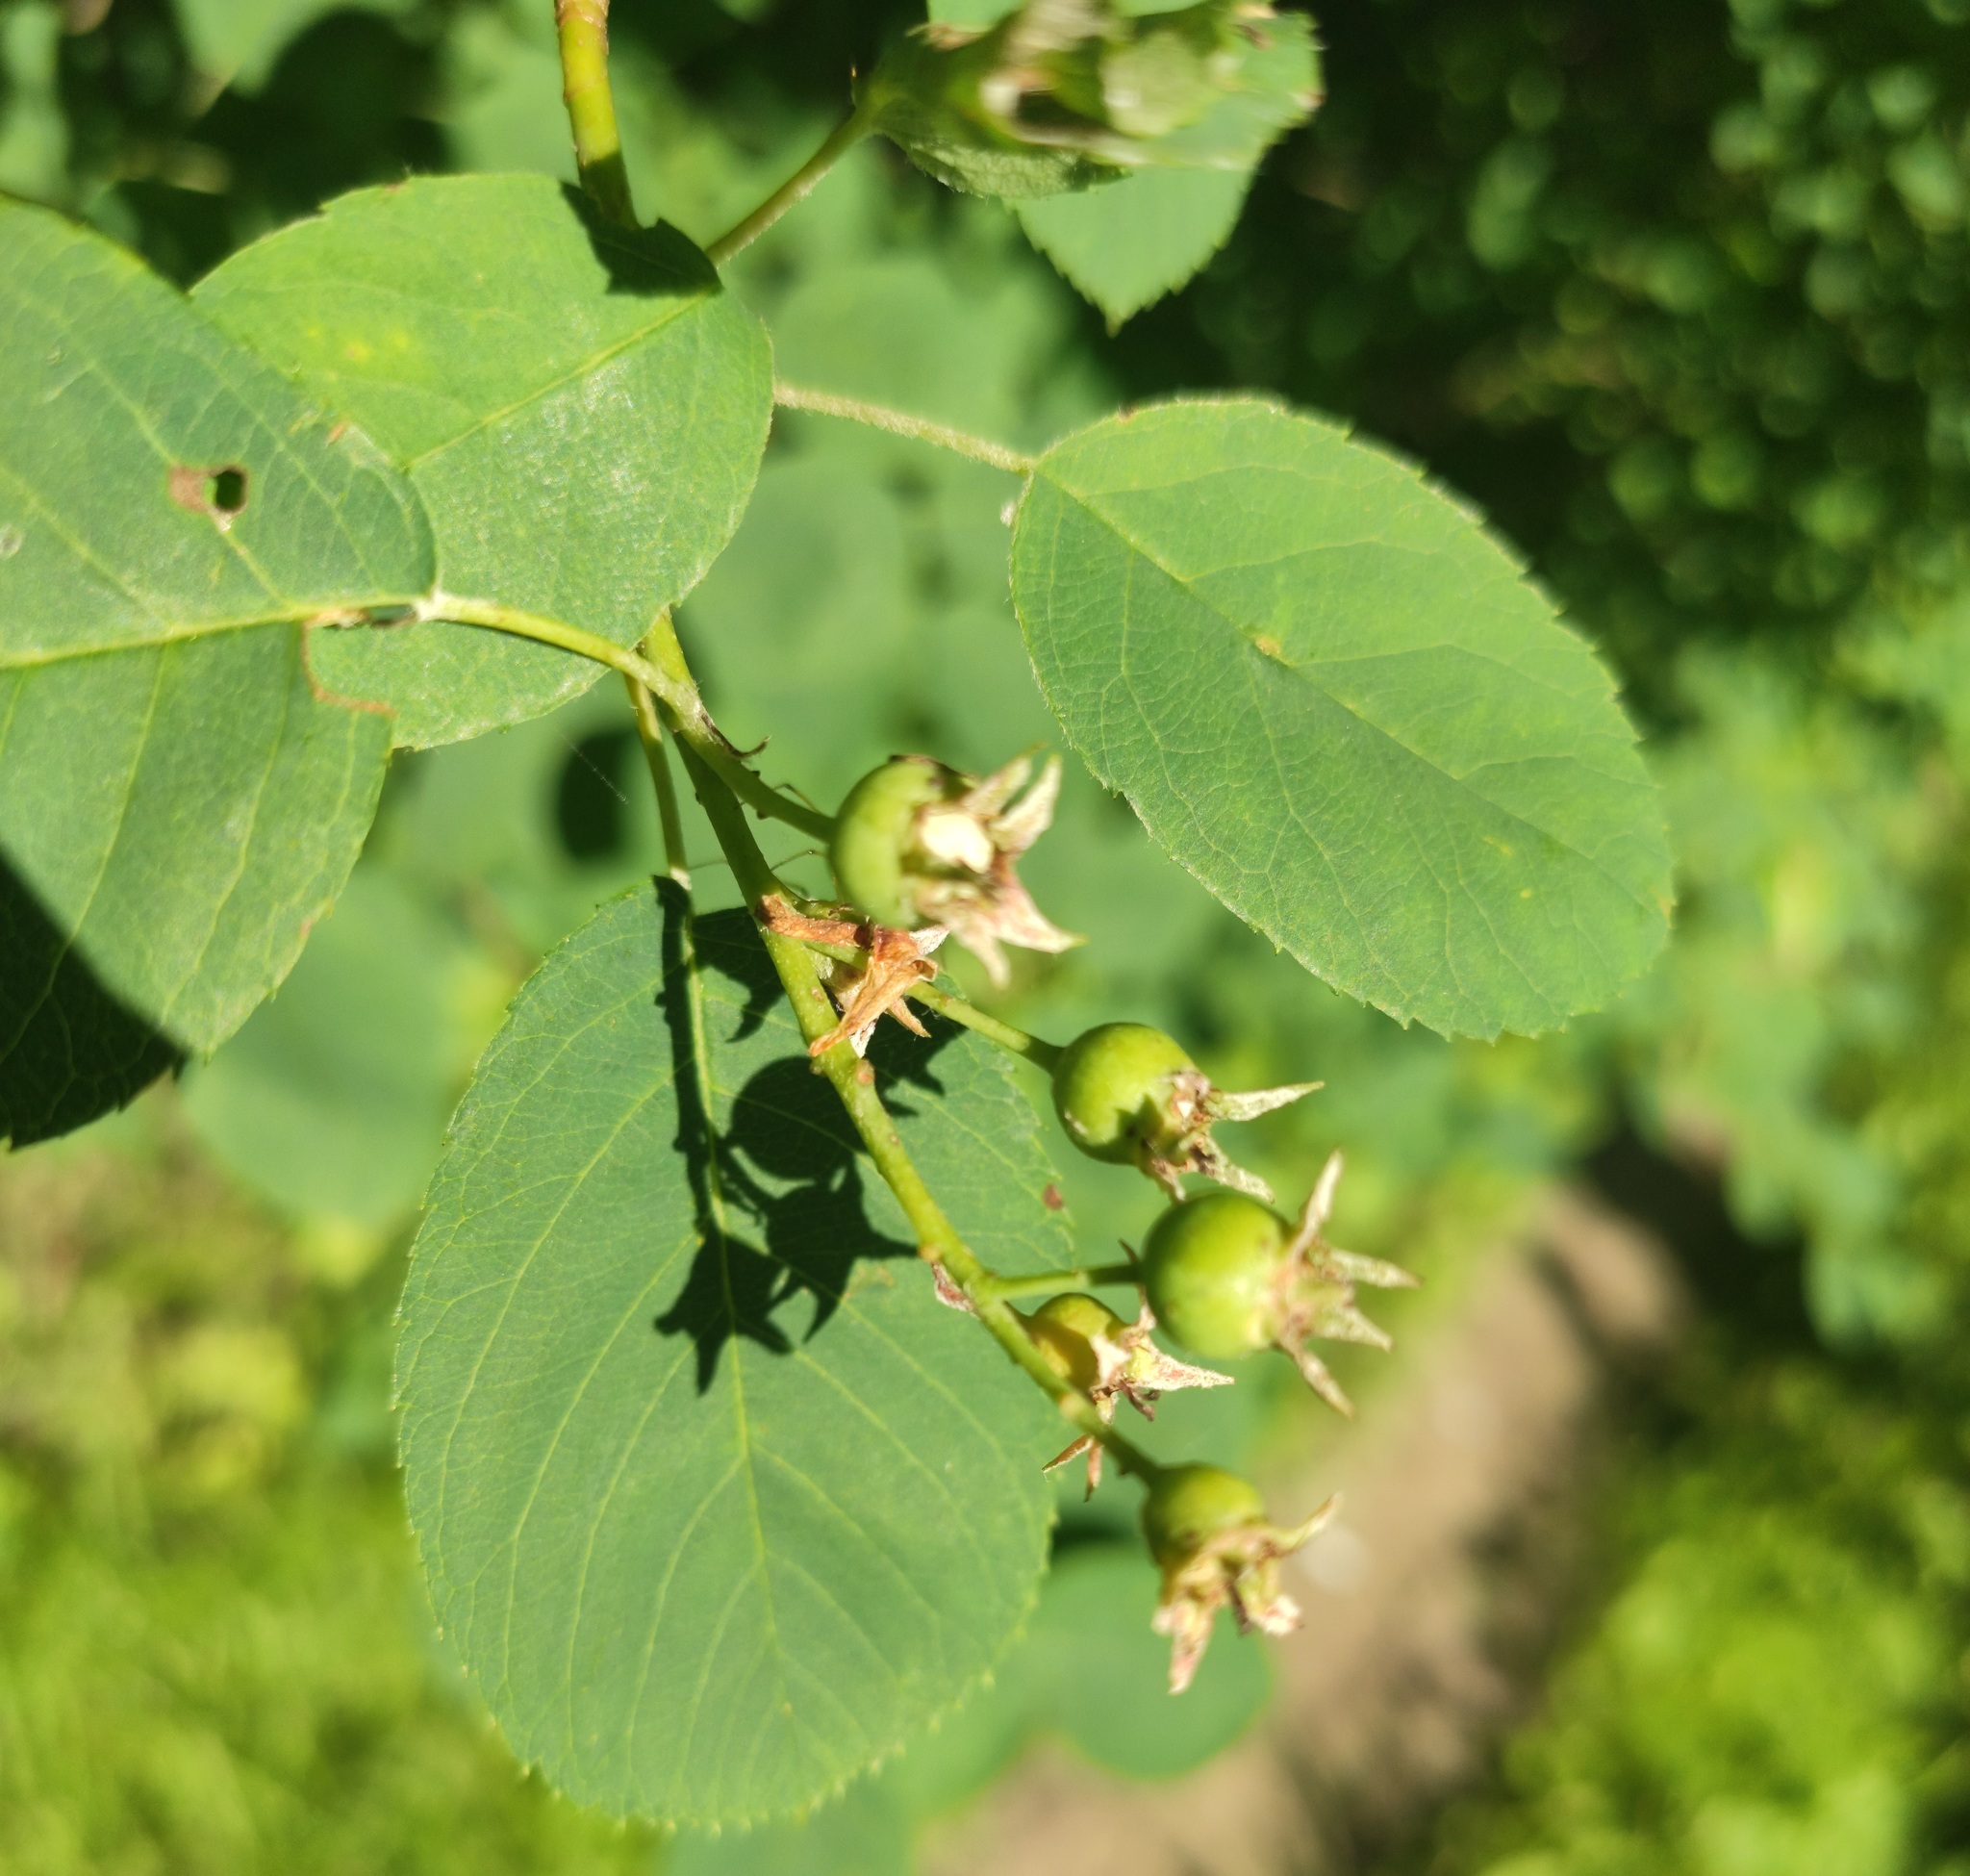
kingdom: Plantae
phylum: Tracheophyta
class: Magnoliopsida
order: Rosales
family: Rosaceae
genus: Amelanchier
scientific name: Amelanchier
